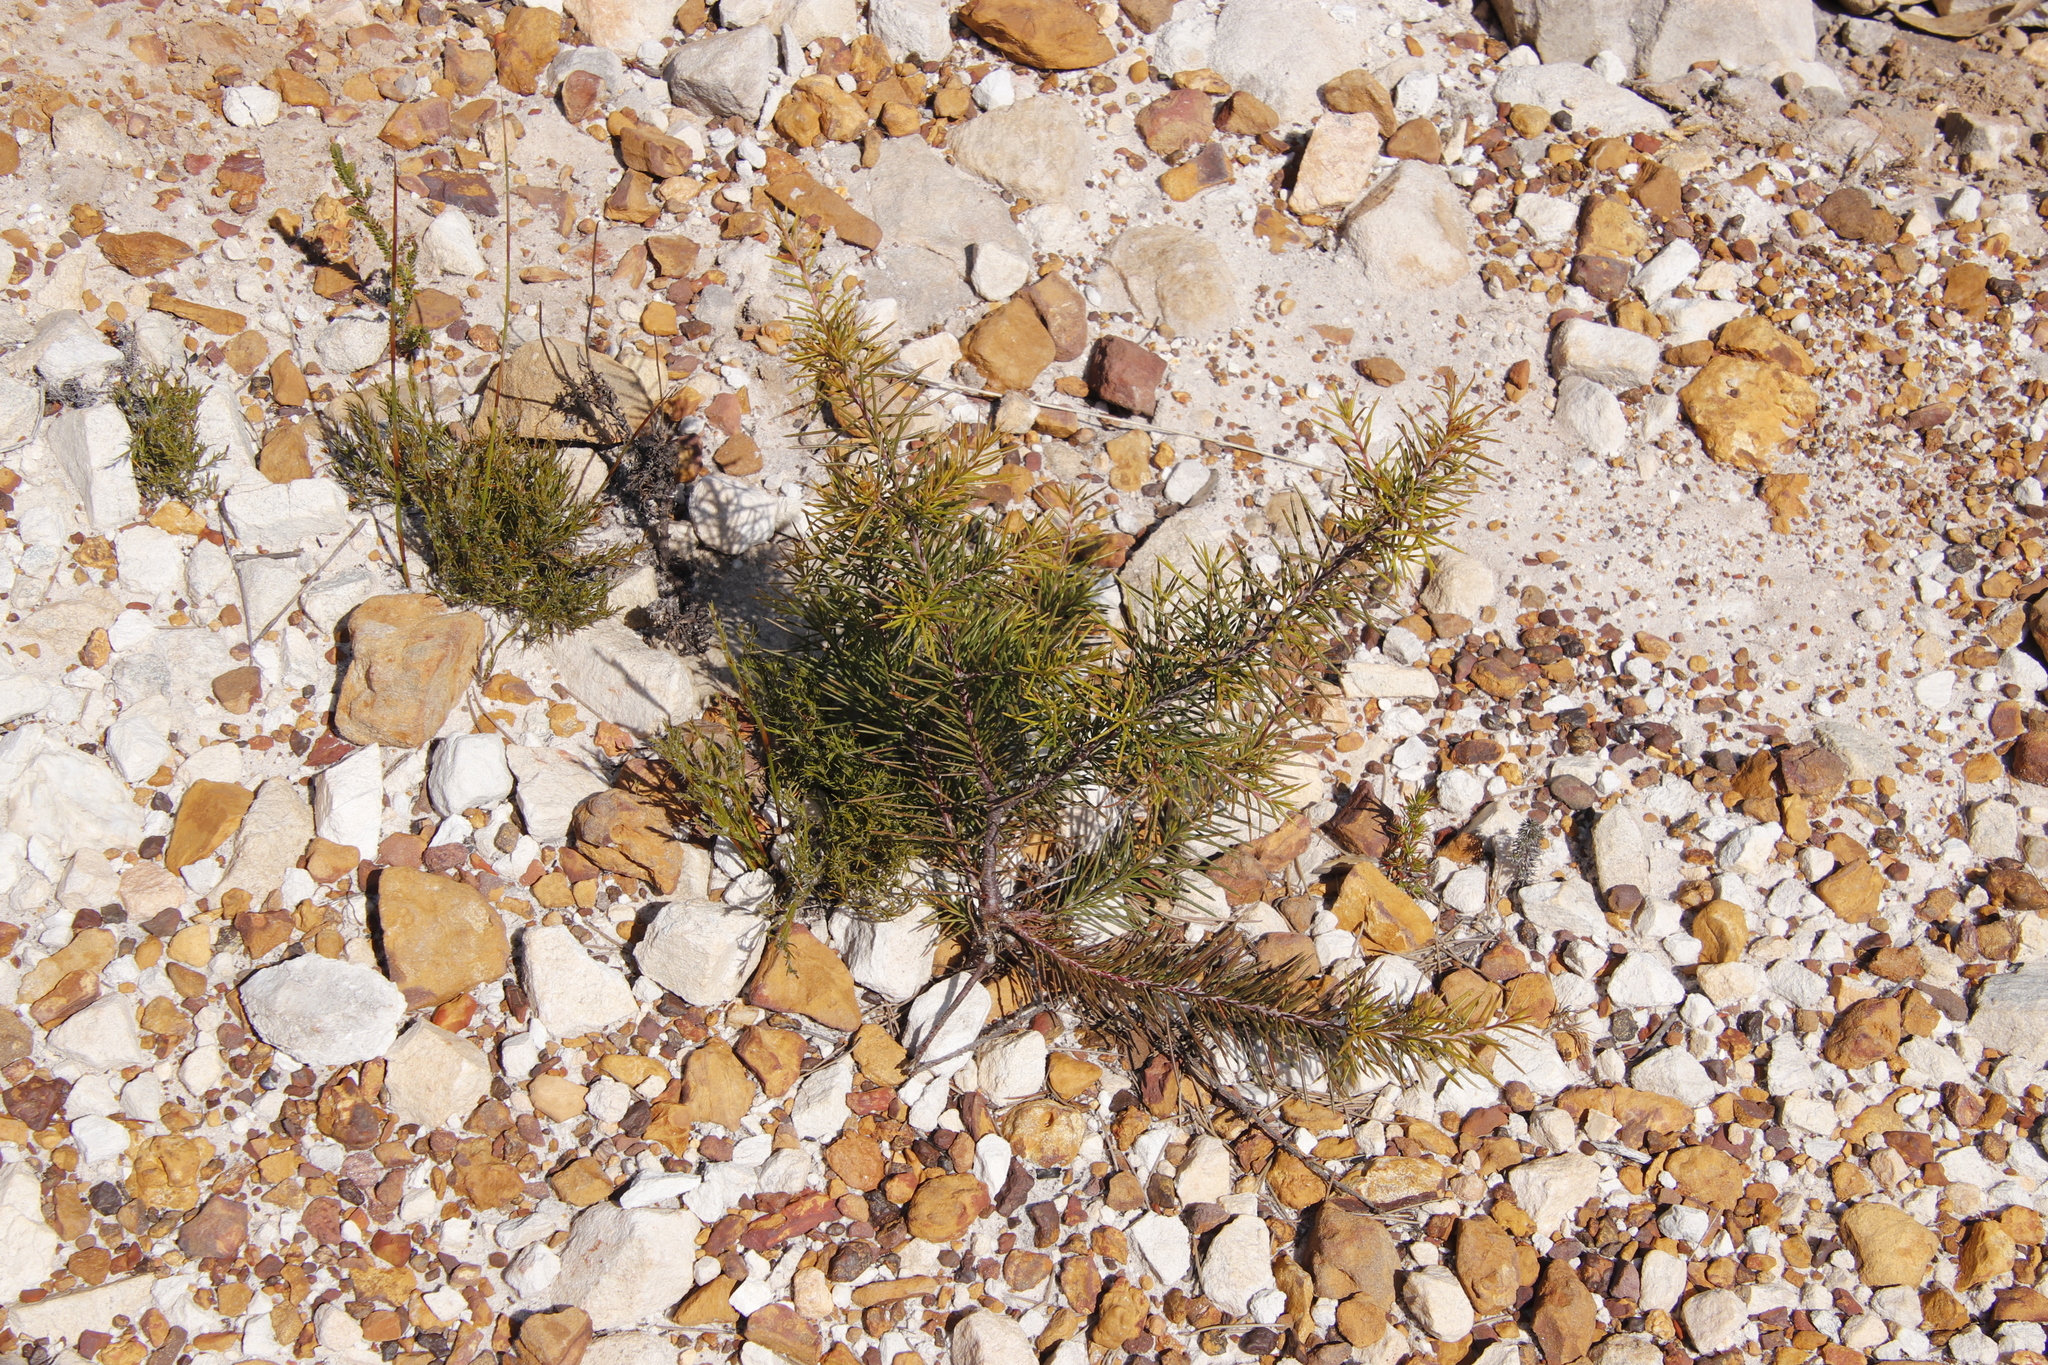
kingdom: Plantae
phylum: Tracheophyta
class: Magnoliopsida
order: Proteales
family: Proteaceae
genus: Hakea
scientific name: Hakea sericea
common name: Needle bush
